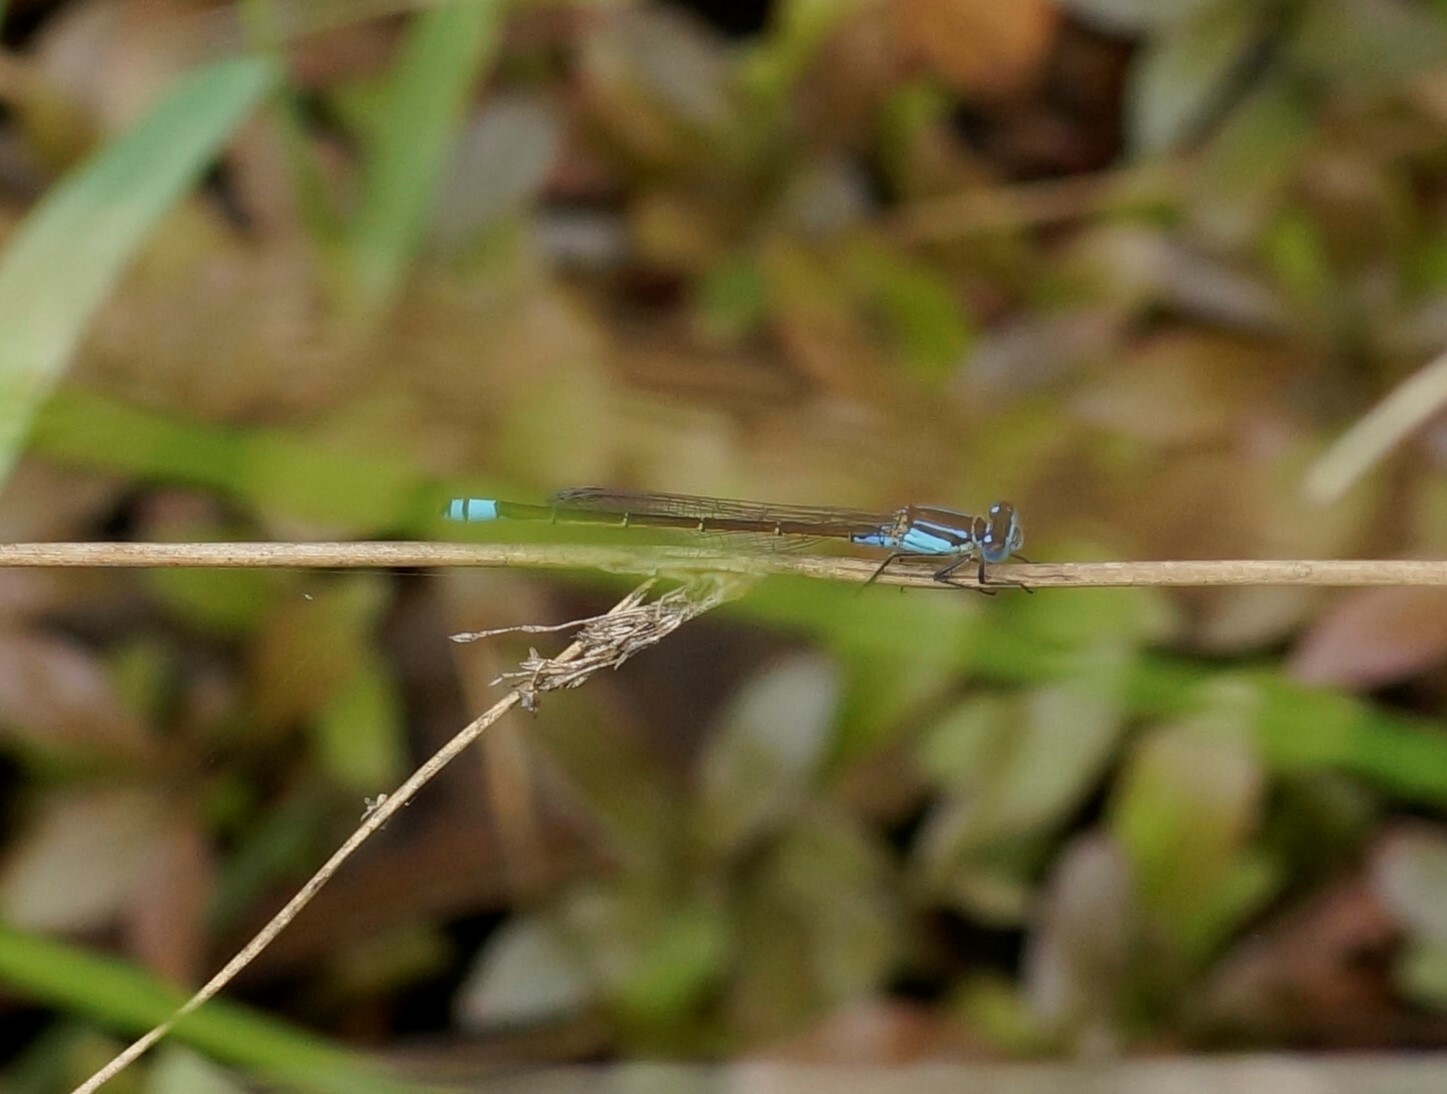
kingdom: Animalia
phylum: Arthropoda
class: Insecta
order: Odonata
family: Coenagrionidae
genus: Ischnura
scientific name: Ischnura heterosticta
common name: Common bluetail
